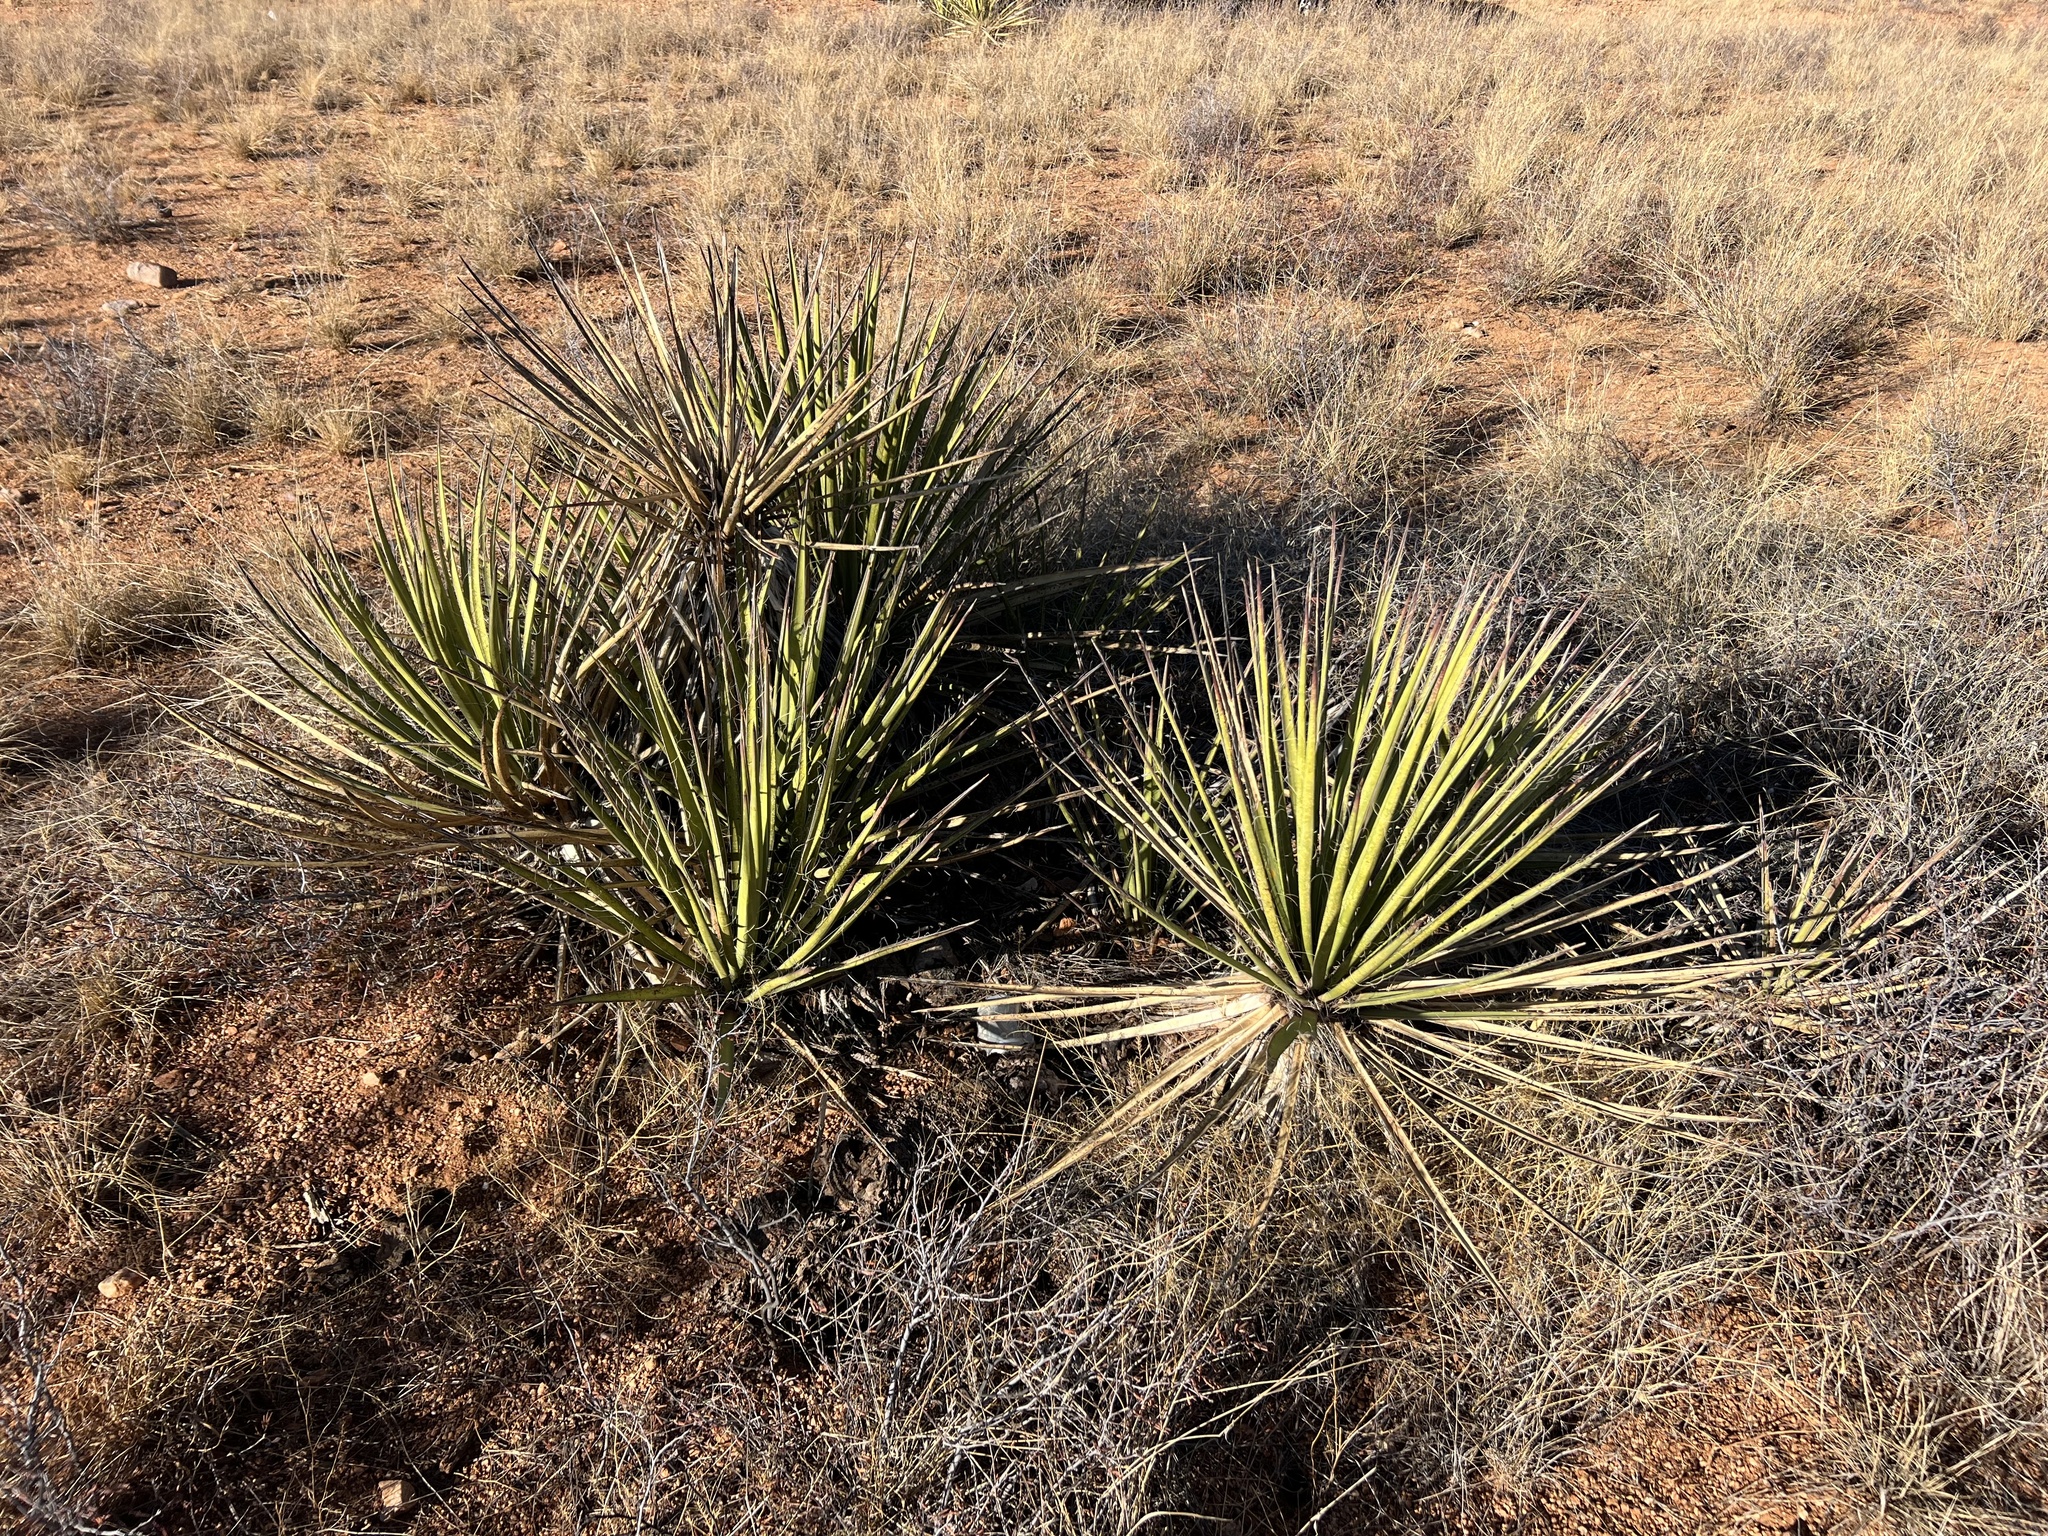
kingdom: Plantae
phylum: Tracheophyta
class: Liliopsida
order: Asparagales
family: Asparagaceae
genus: Yucca
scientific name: Yucca baccata
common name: Banana yucca
